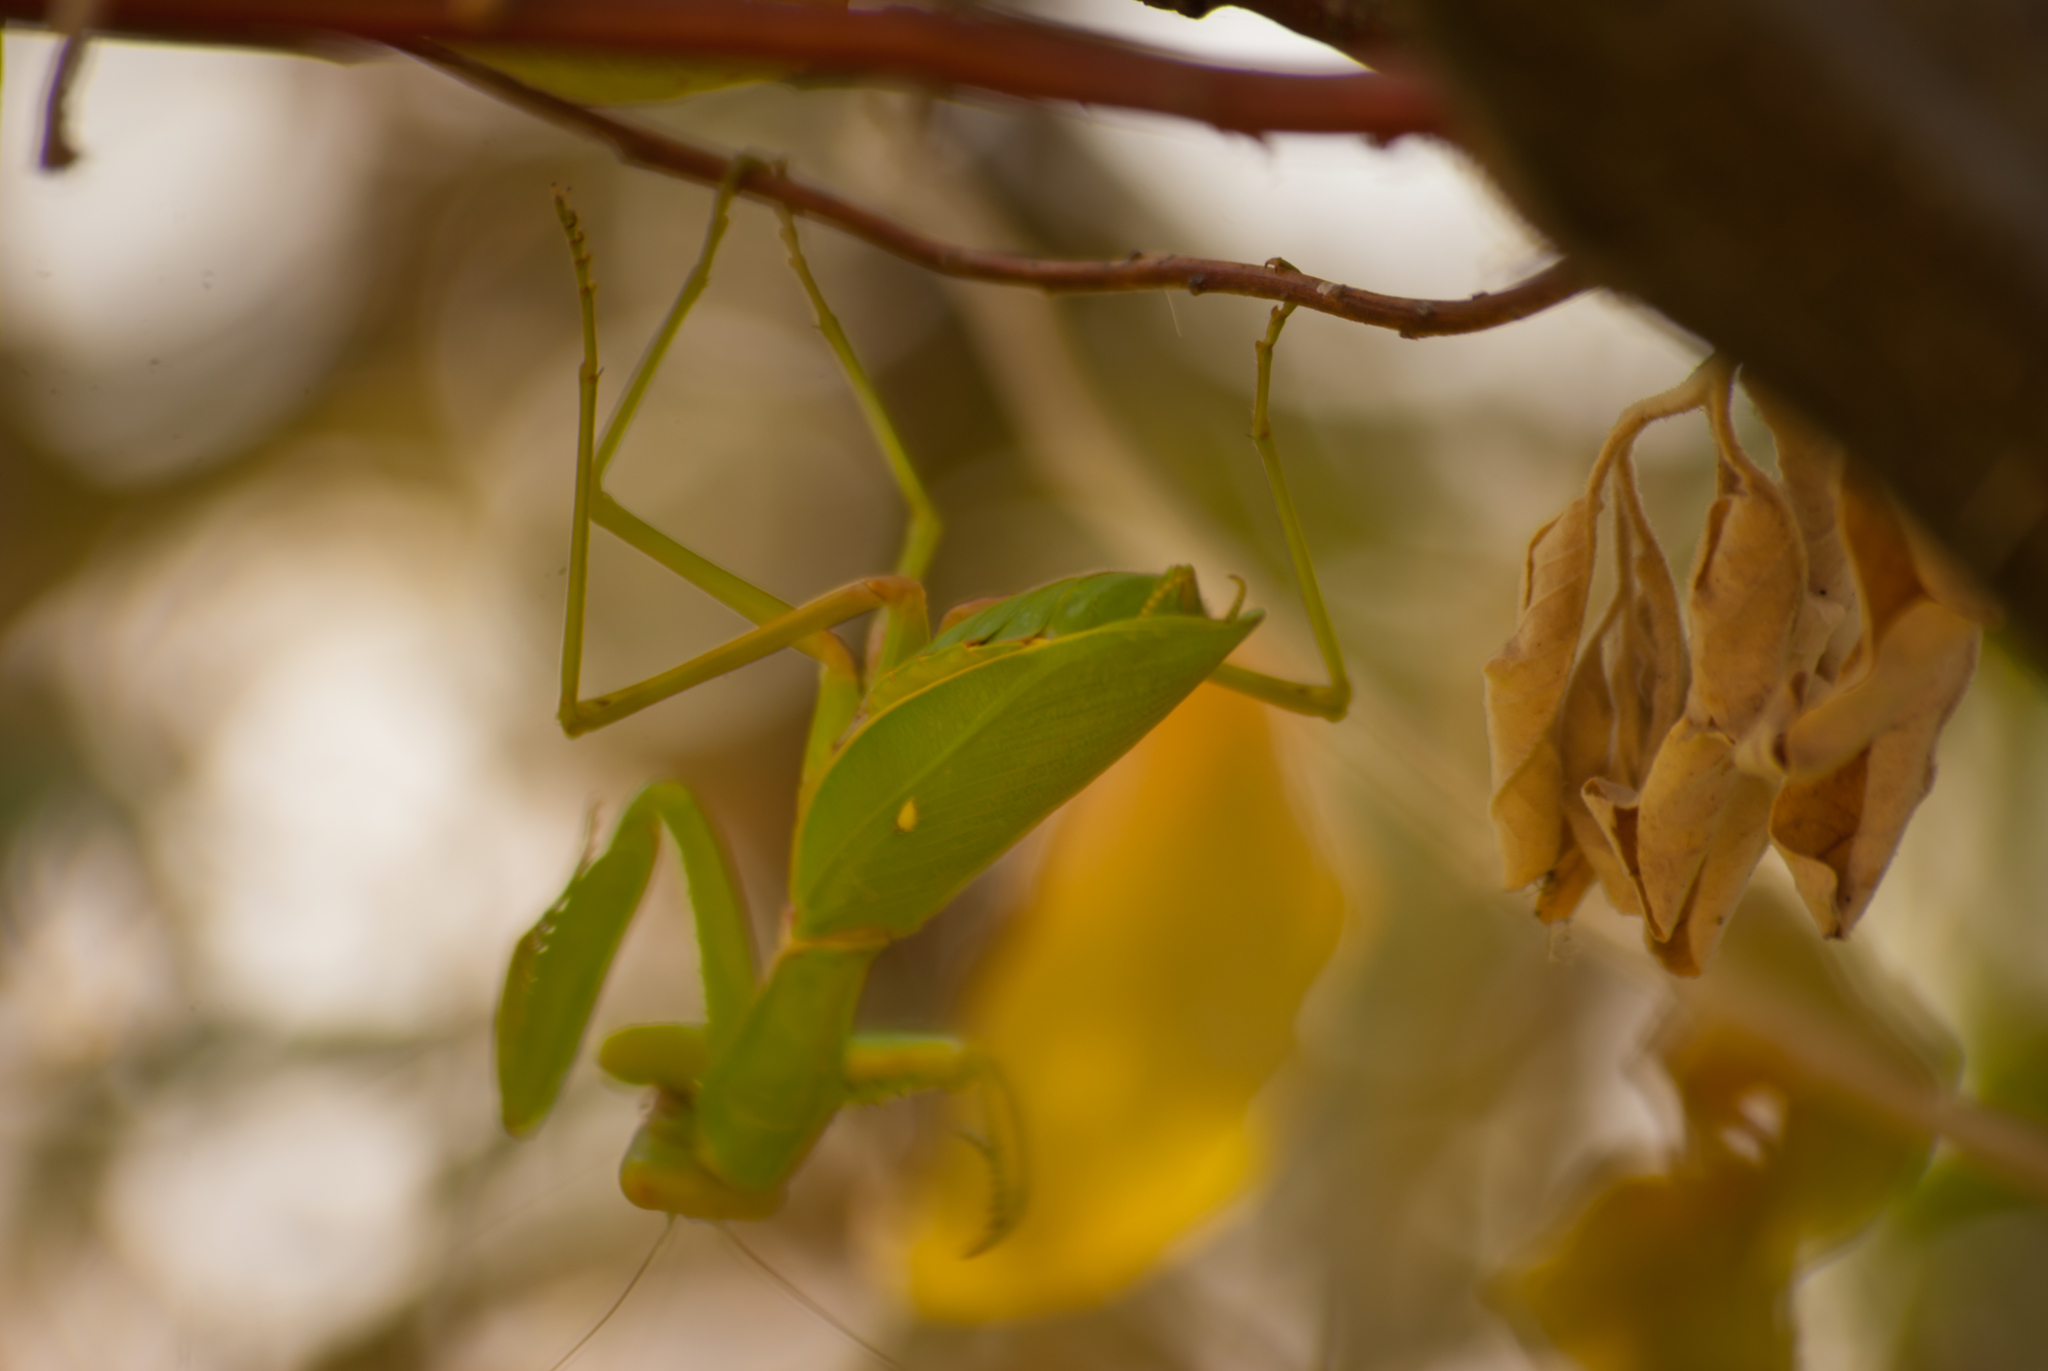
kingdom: Animalia
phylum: Arthropoda
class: Insecta
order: Mantodea
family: Mantidae
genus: Hierodula
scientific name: Hierodula transcaucasica
